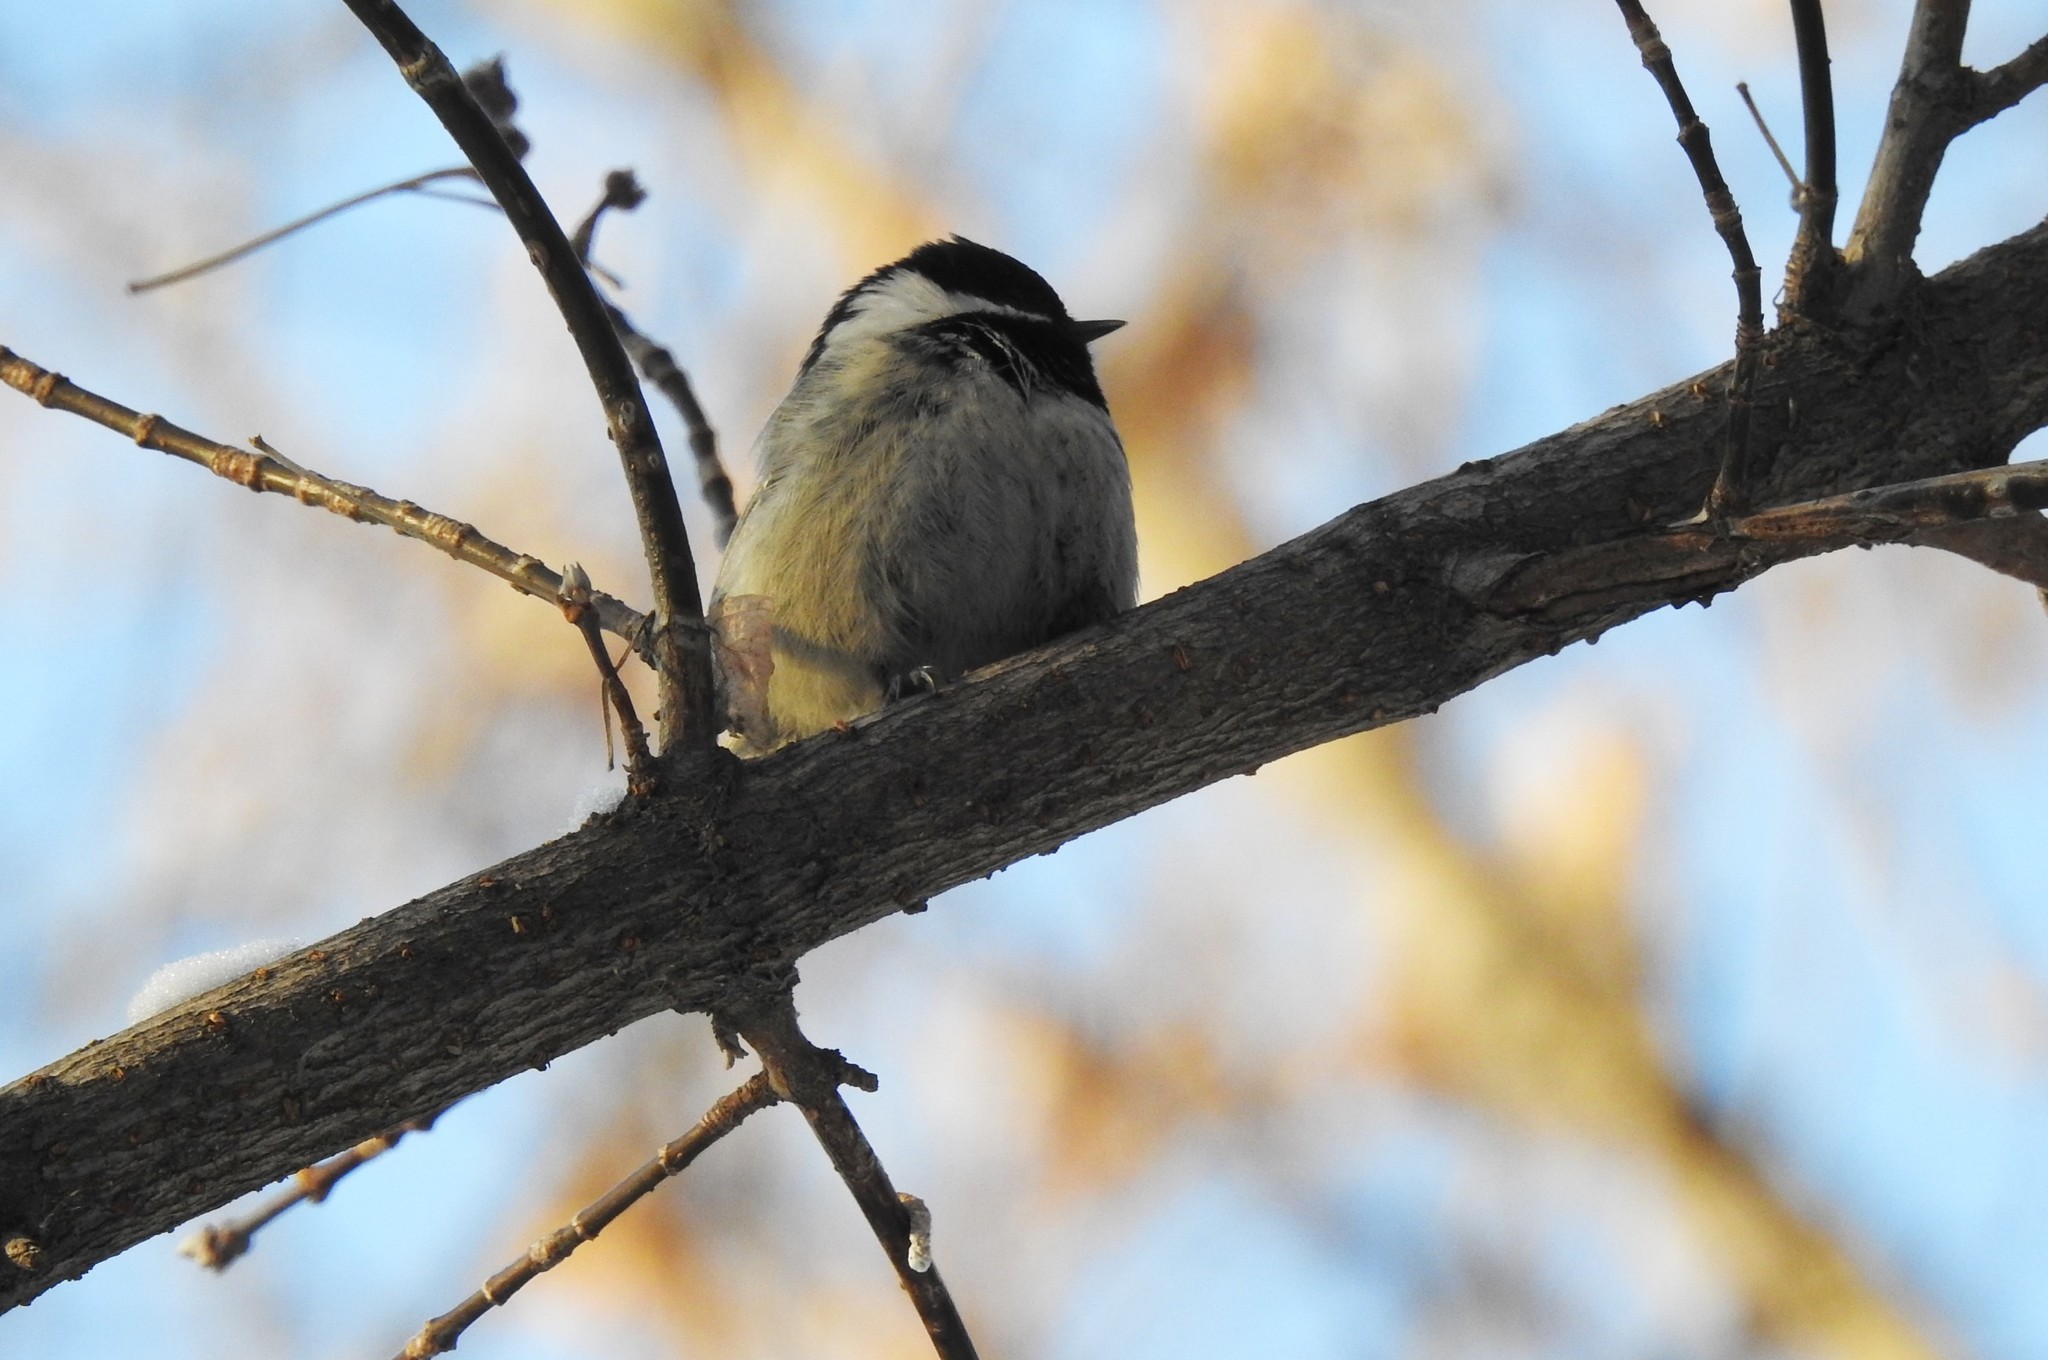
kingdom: Animalia
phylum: Chordata
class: Aves
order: Passeriformes
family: Paridae
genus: Periparus
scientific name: Periparus ater
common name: Coal tit
